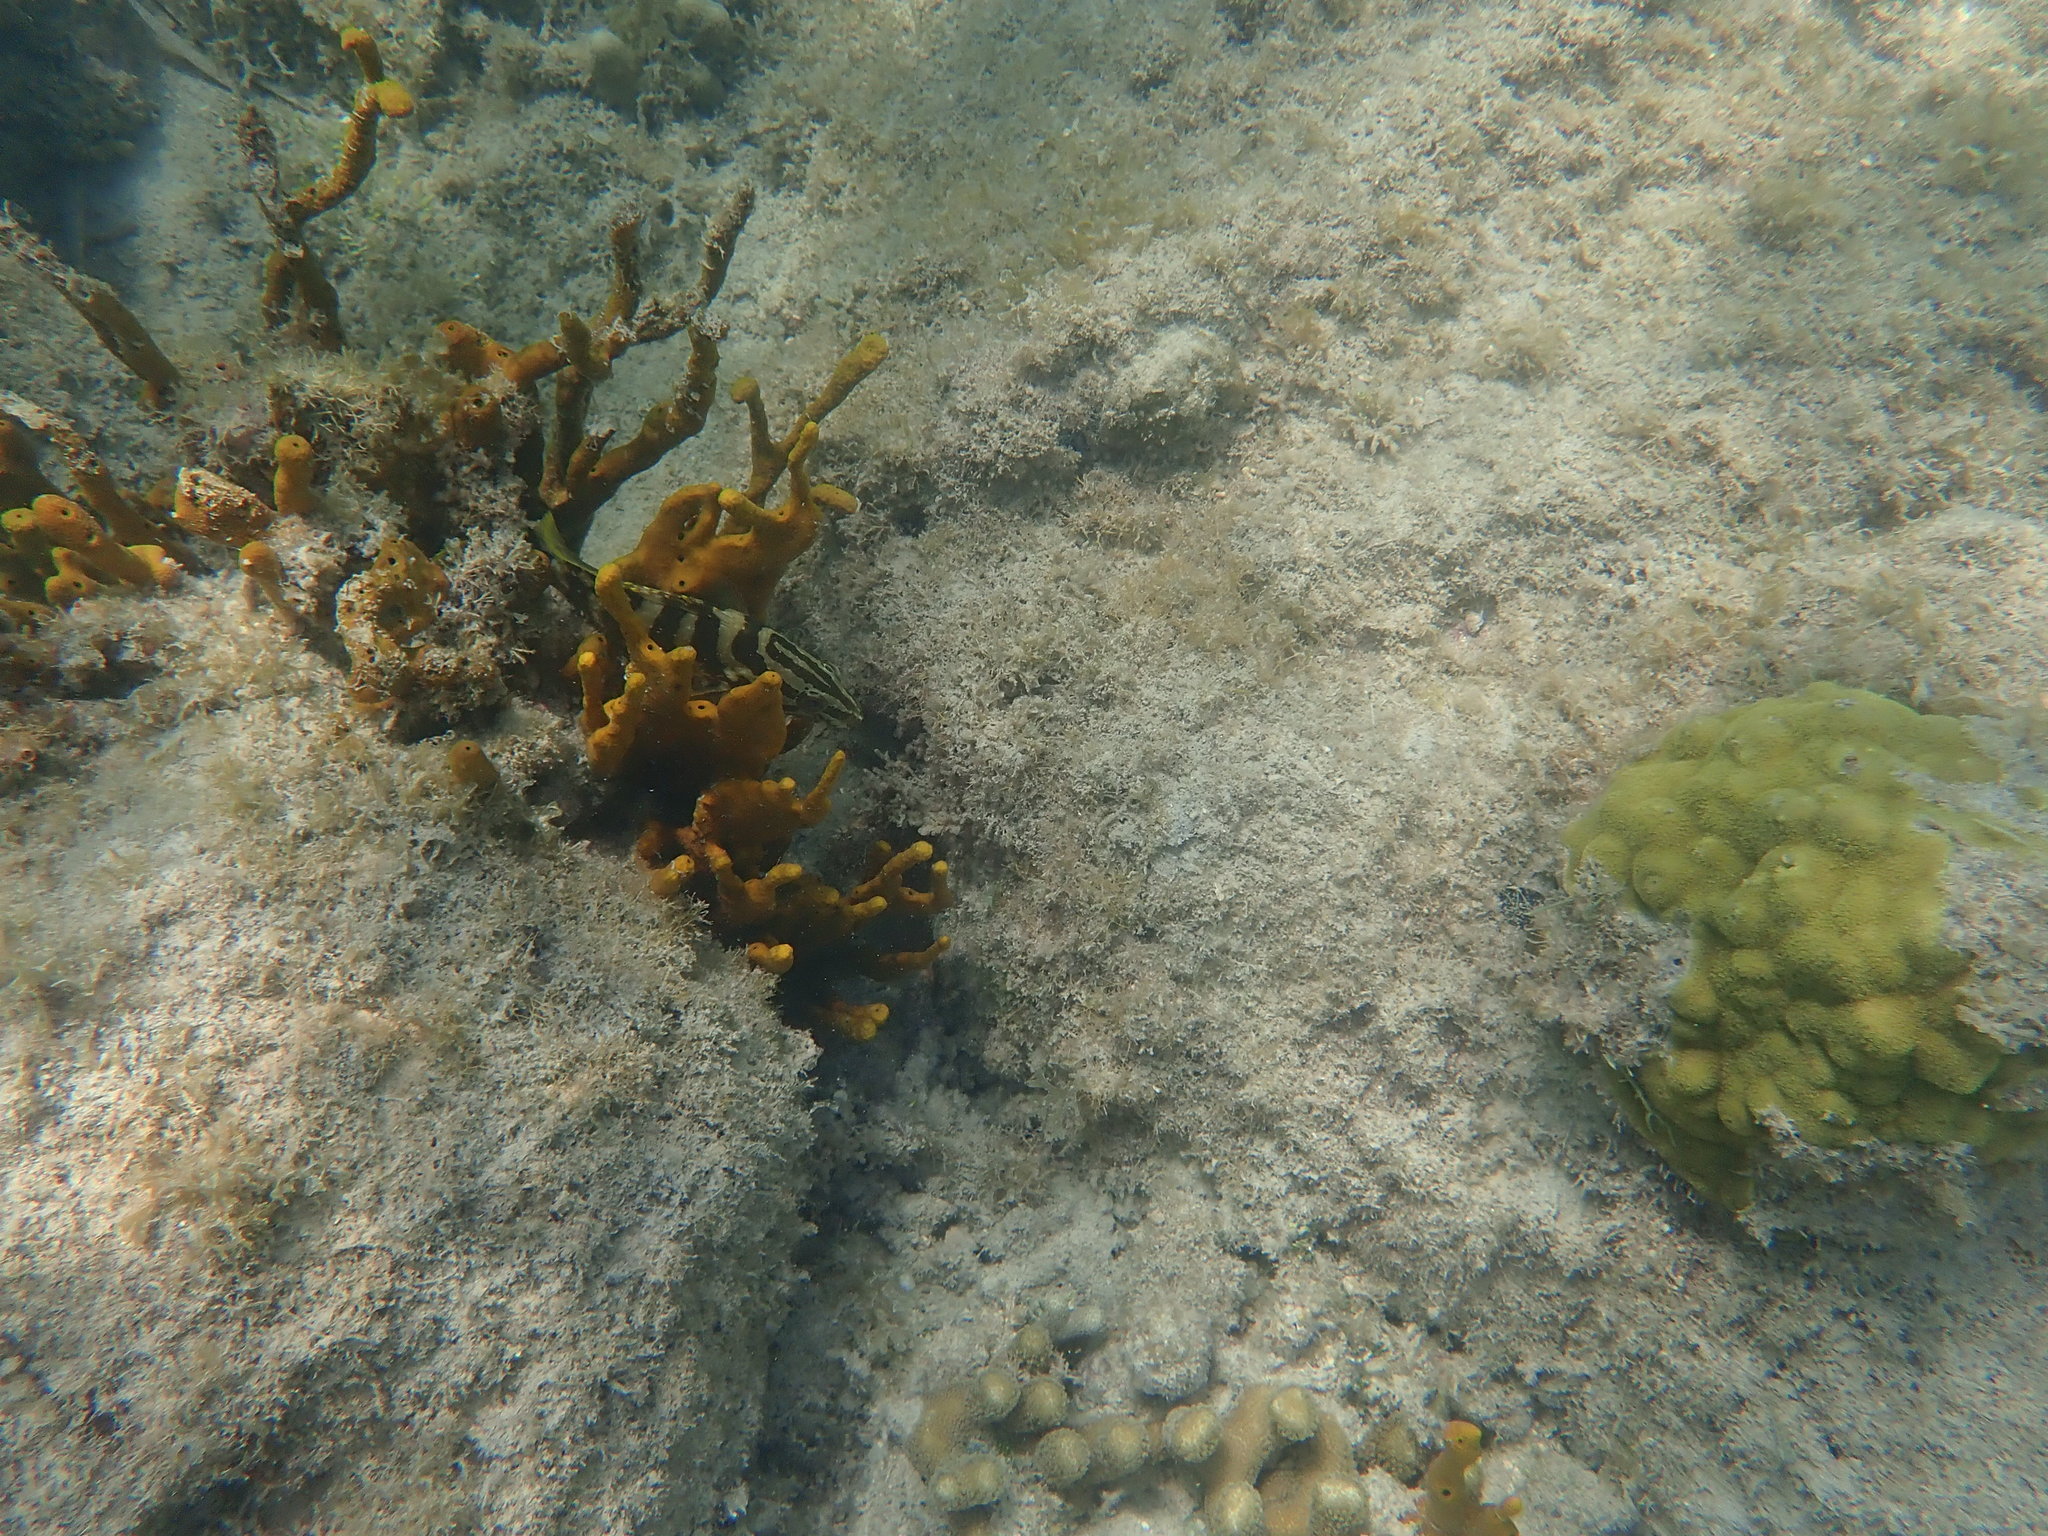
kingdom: Animalia
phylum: Chordata
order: Perciformes
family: Serranidae
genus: Epinephelus
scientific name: Epinephelus striatus
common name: Nassau grouper
